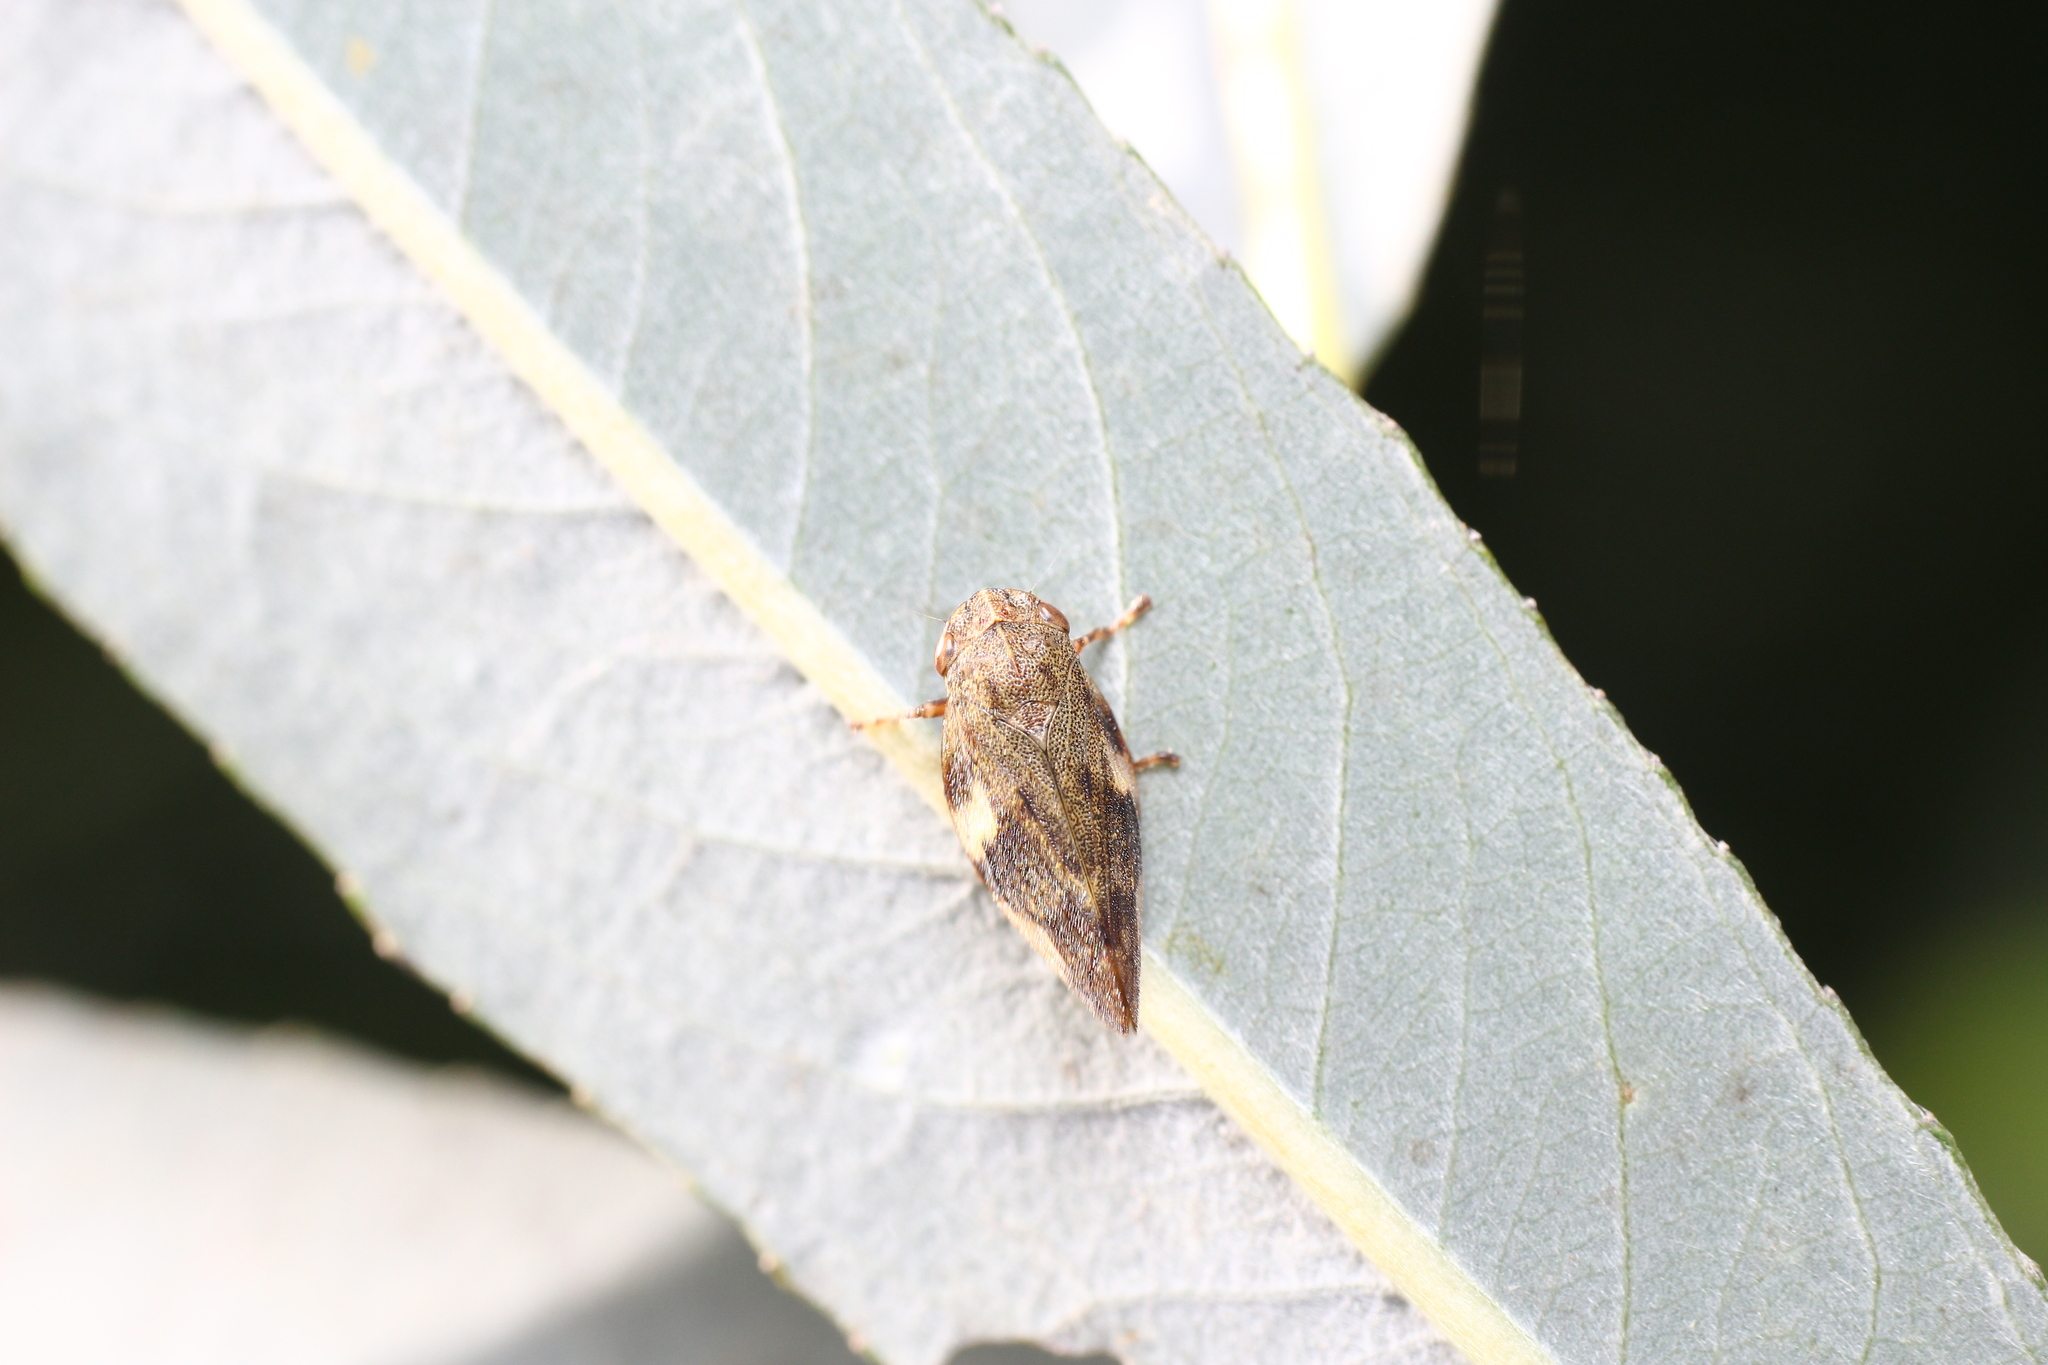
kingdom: Animalia
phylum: Arthropoda
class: Insecta
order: Hemiptera
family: Aphrophoridae
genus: Aphrophora
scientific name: Aphrophora alni
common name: European alder spittlebug
